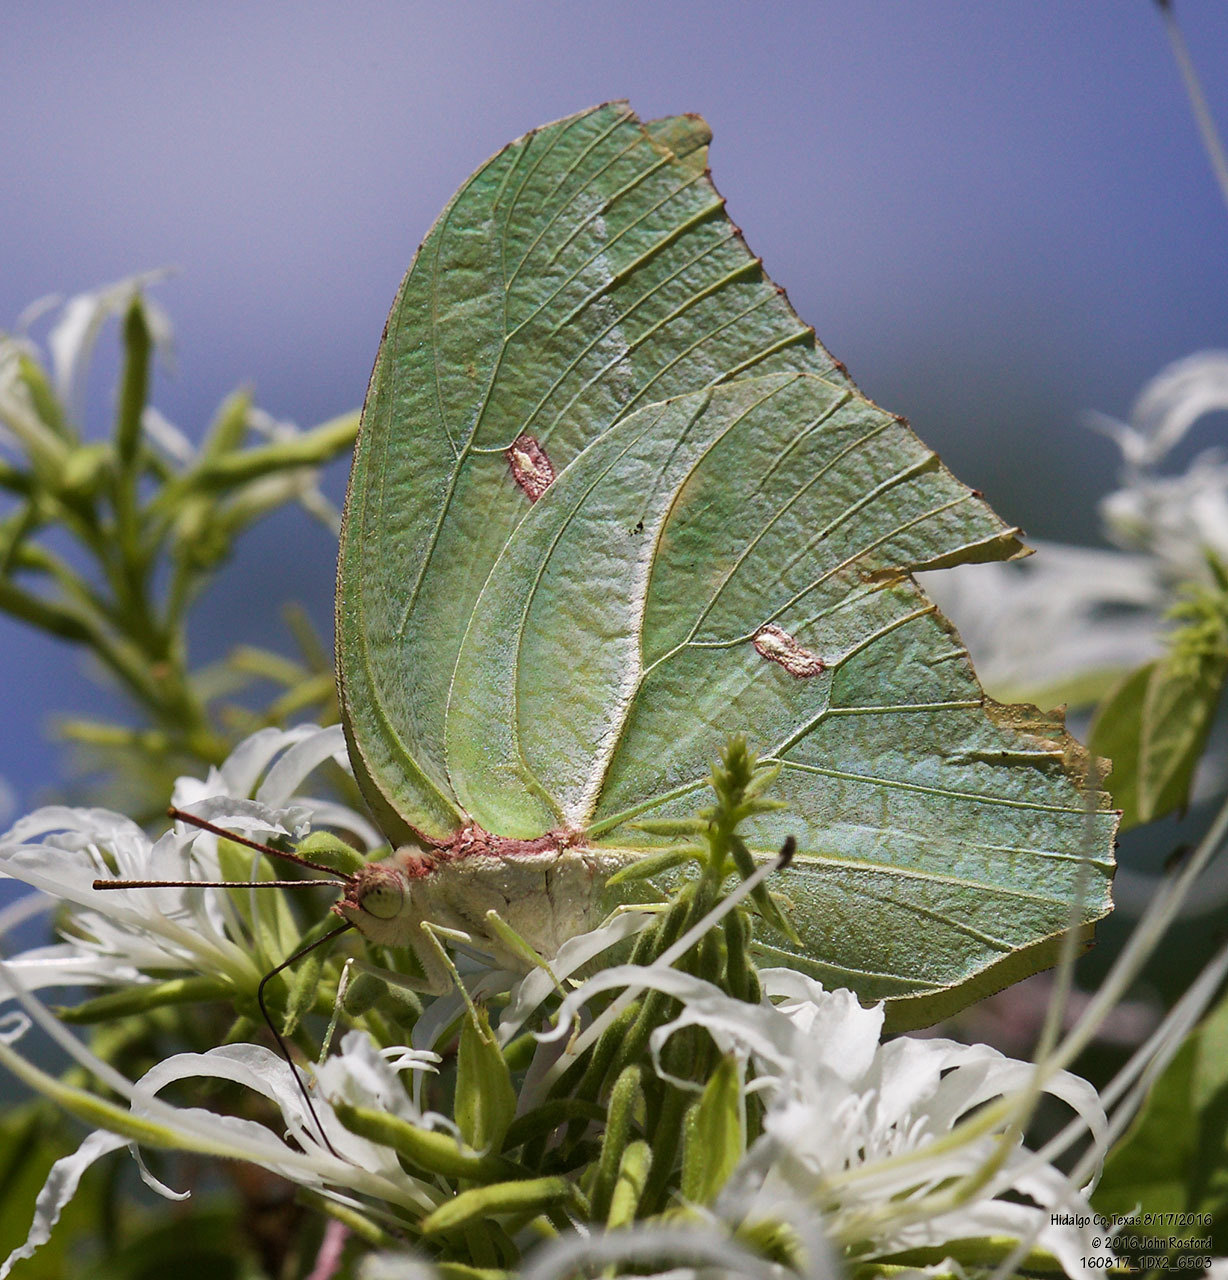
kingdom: Animalia
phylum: Arthropoda
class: Insecta
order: Lepidoptera
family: Pieridae
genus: Anteos
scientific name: Anteos maerula
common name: Angled sulphur
